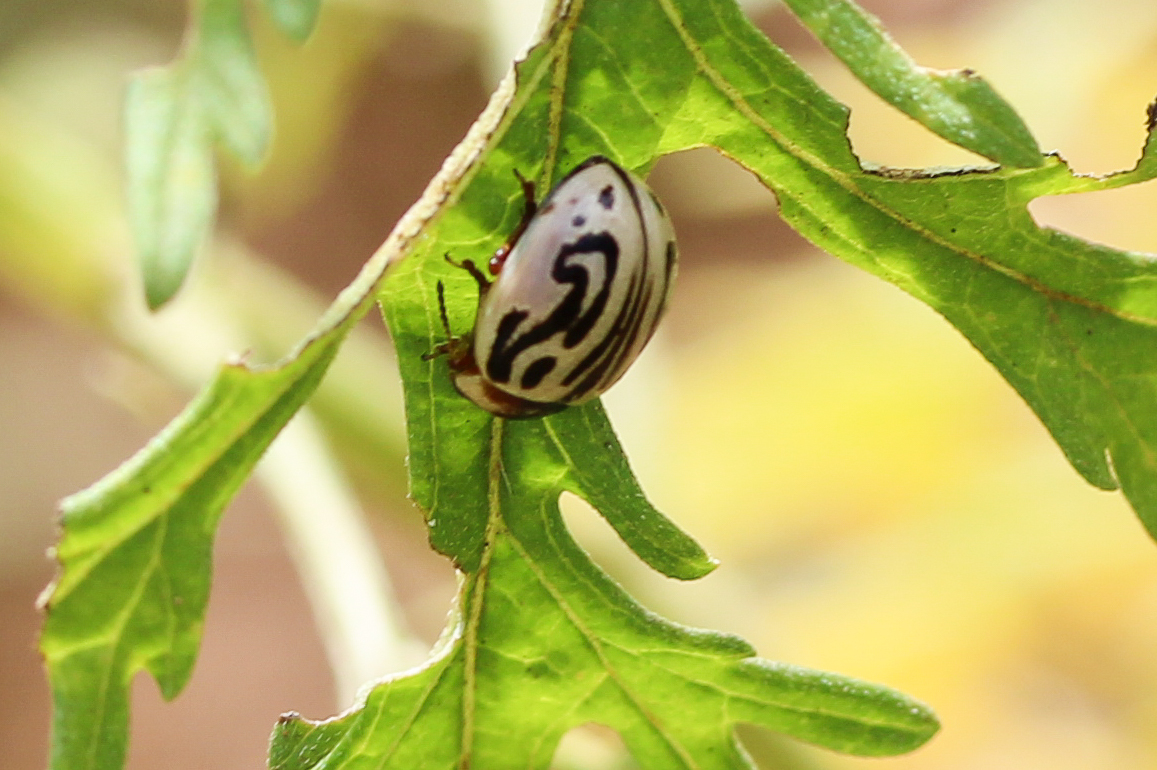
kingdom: Animalia
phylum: Arthropoda
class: Insecta
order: Coleoptera
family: Chrysomelidae
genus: Calligrapha
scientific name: Calligrapha
